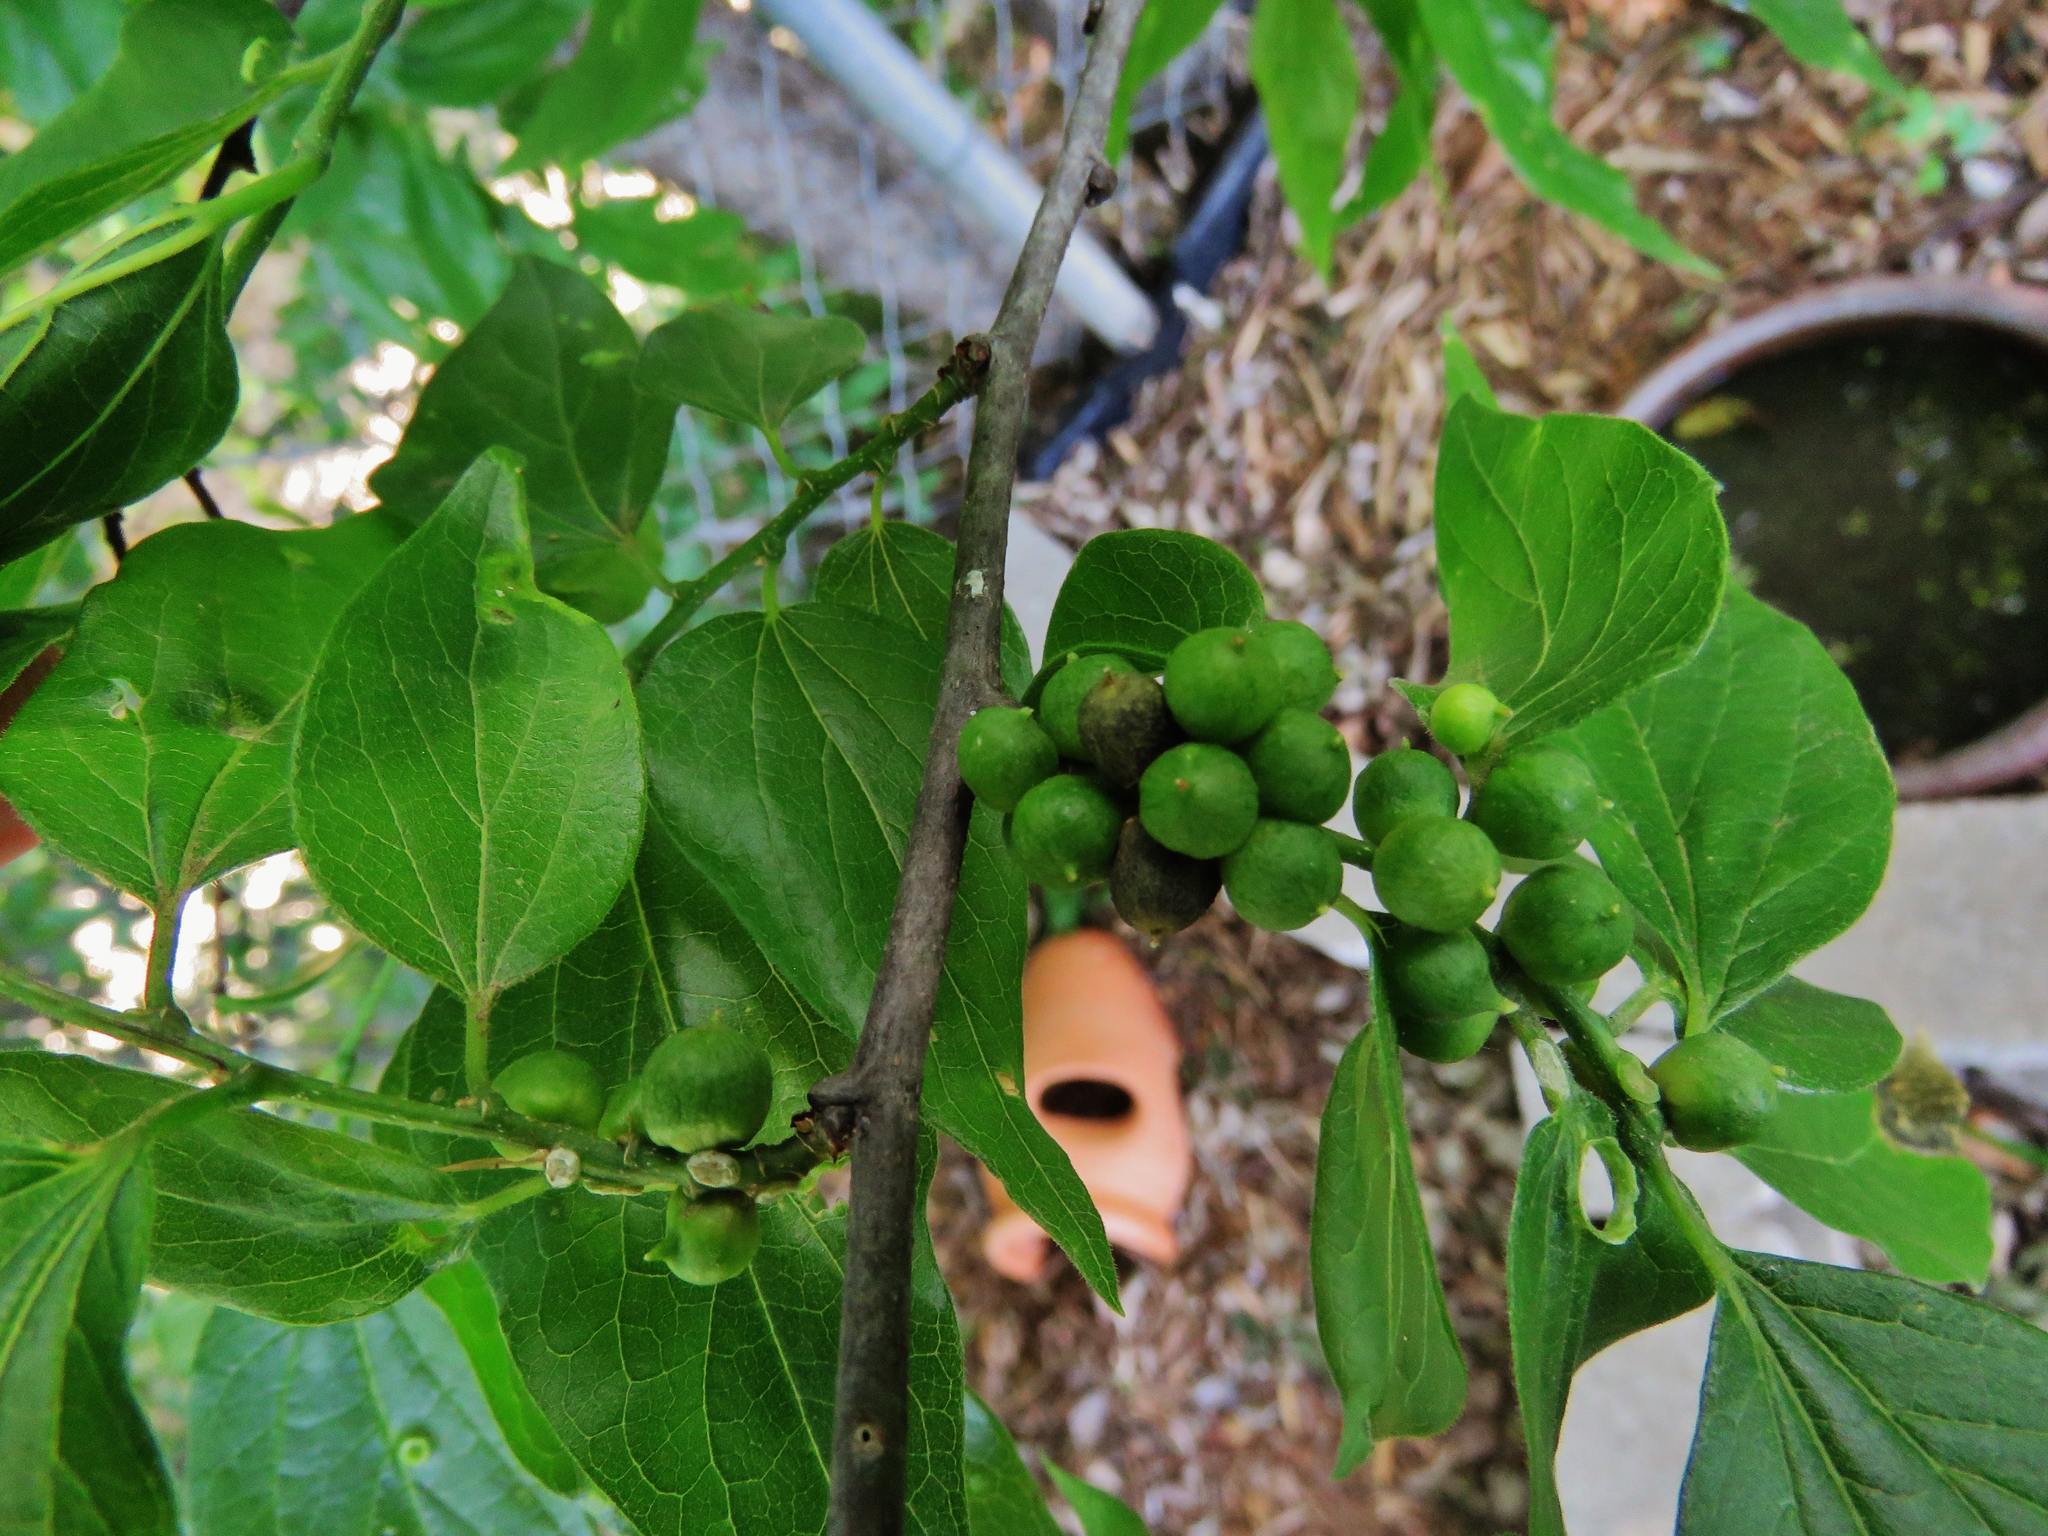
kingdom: Plantae
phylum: Tracheophyta
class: Magnoliopsida
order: Rosales
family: Cannabaceae
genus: Celtis
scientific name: Celtis laevigata
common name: Sugarberry
